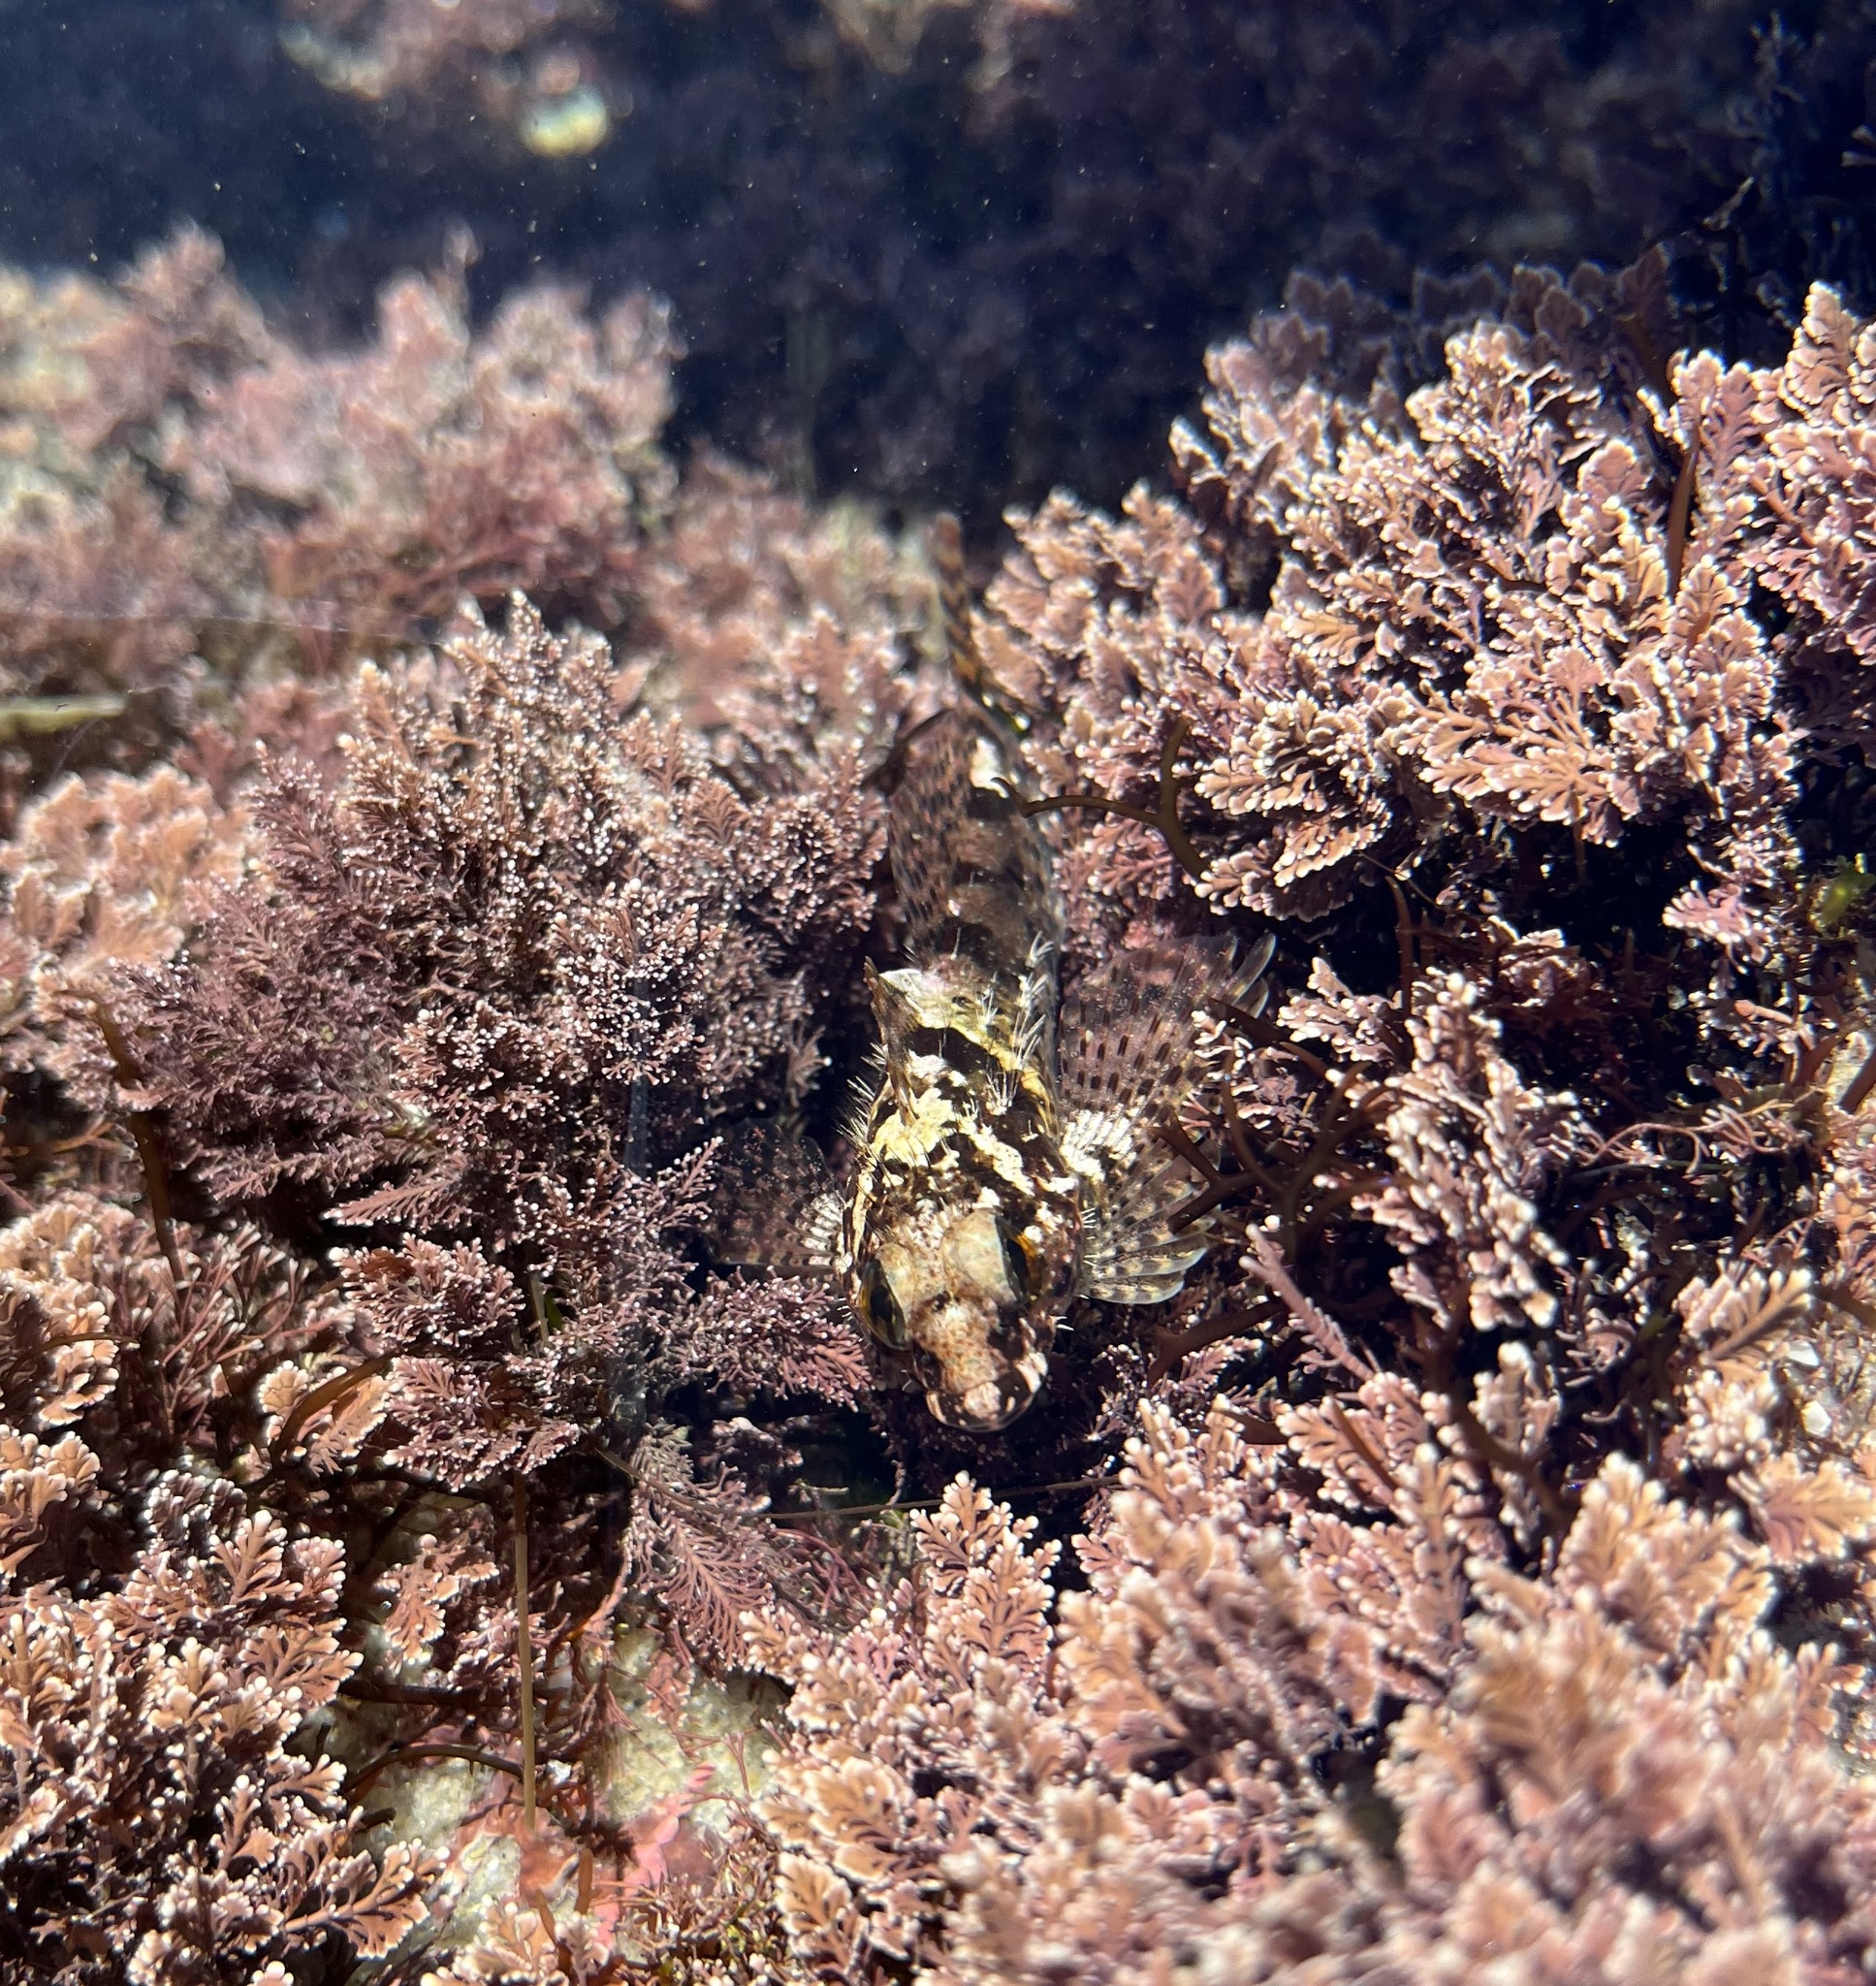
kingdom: Animalia
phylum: Chordata
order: Scorpaeniformes
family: Cottidae
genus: Clinocottus
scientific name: Clinocottus analis
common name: Woolly sculpin
